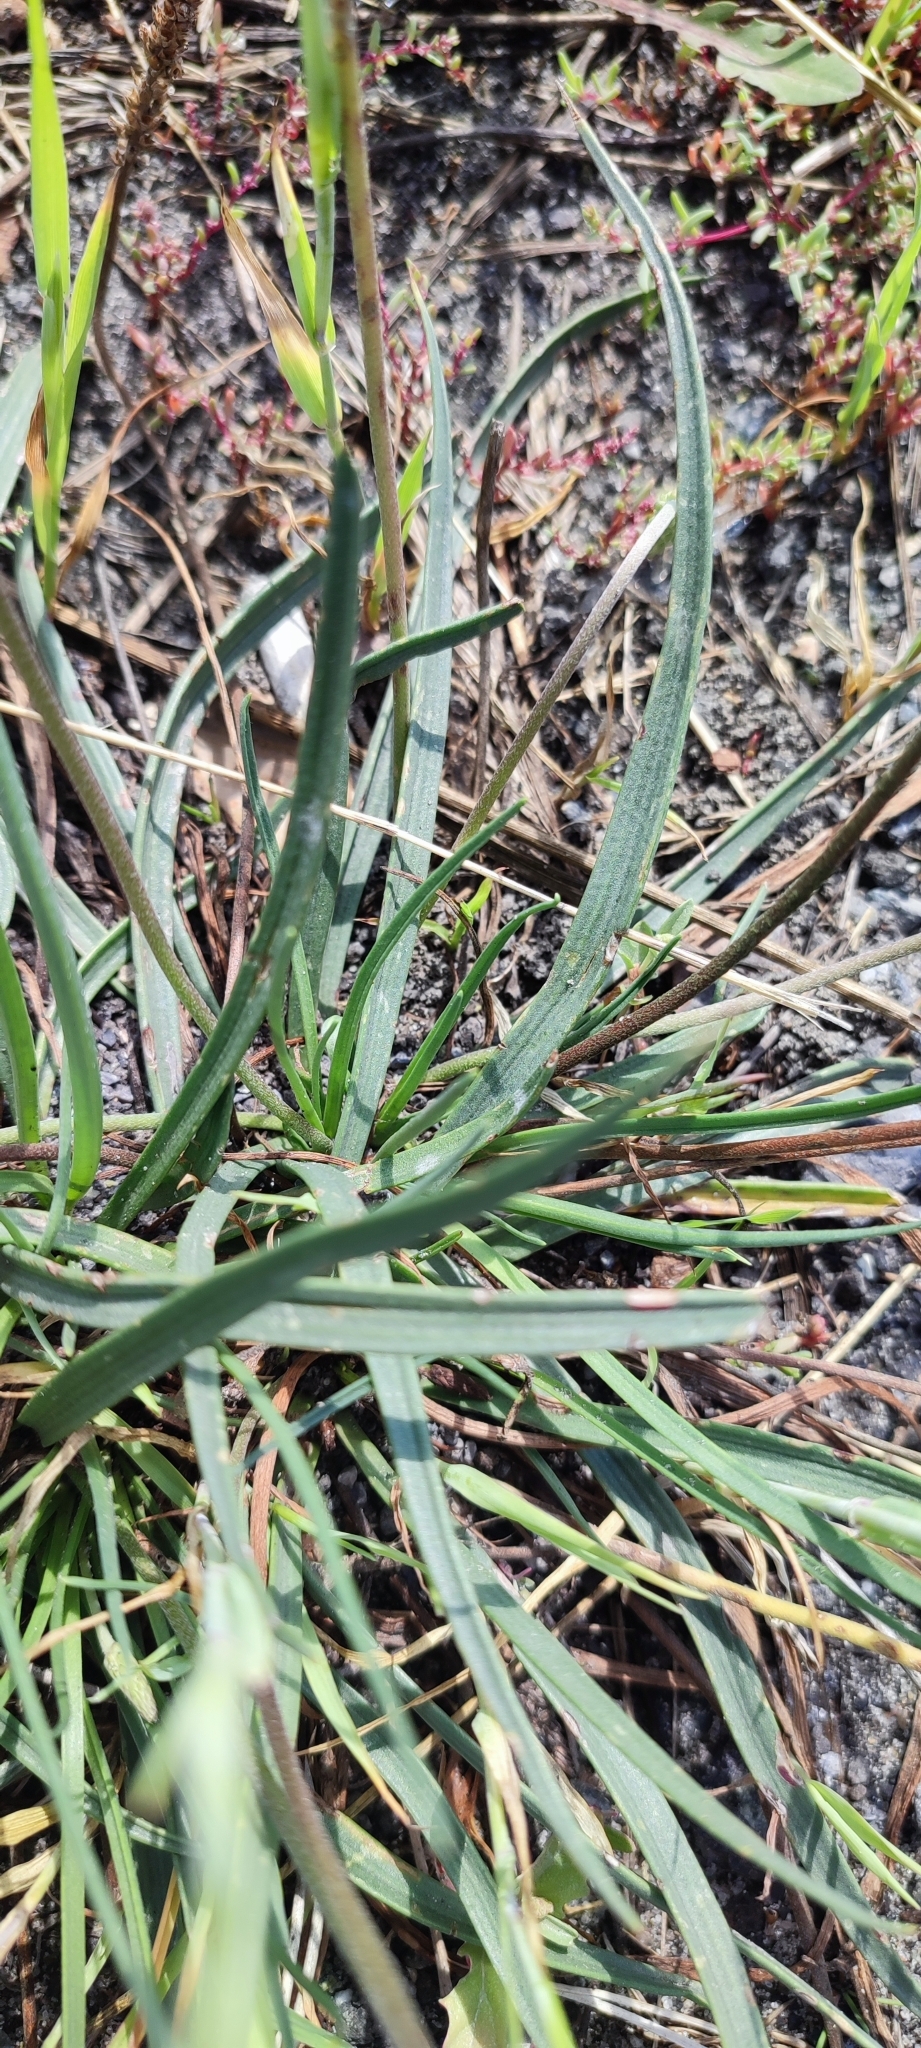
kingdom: Plantae
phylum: Tracheophyta
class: Magnoliopsida
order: Lamiales
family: Plantaginaceae
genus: Plantago
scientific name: Plantago salsa
